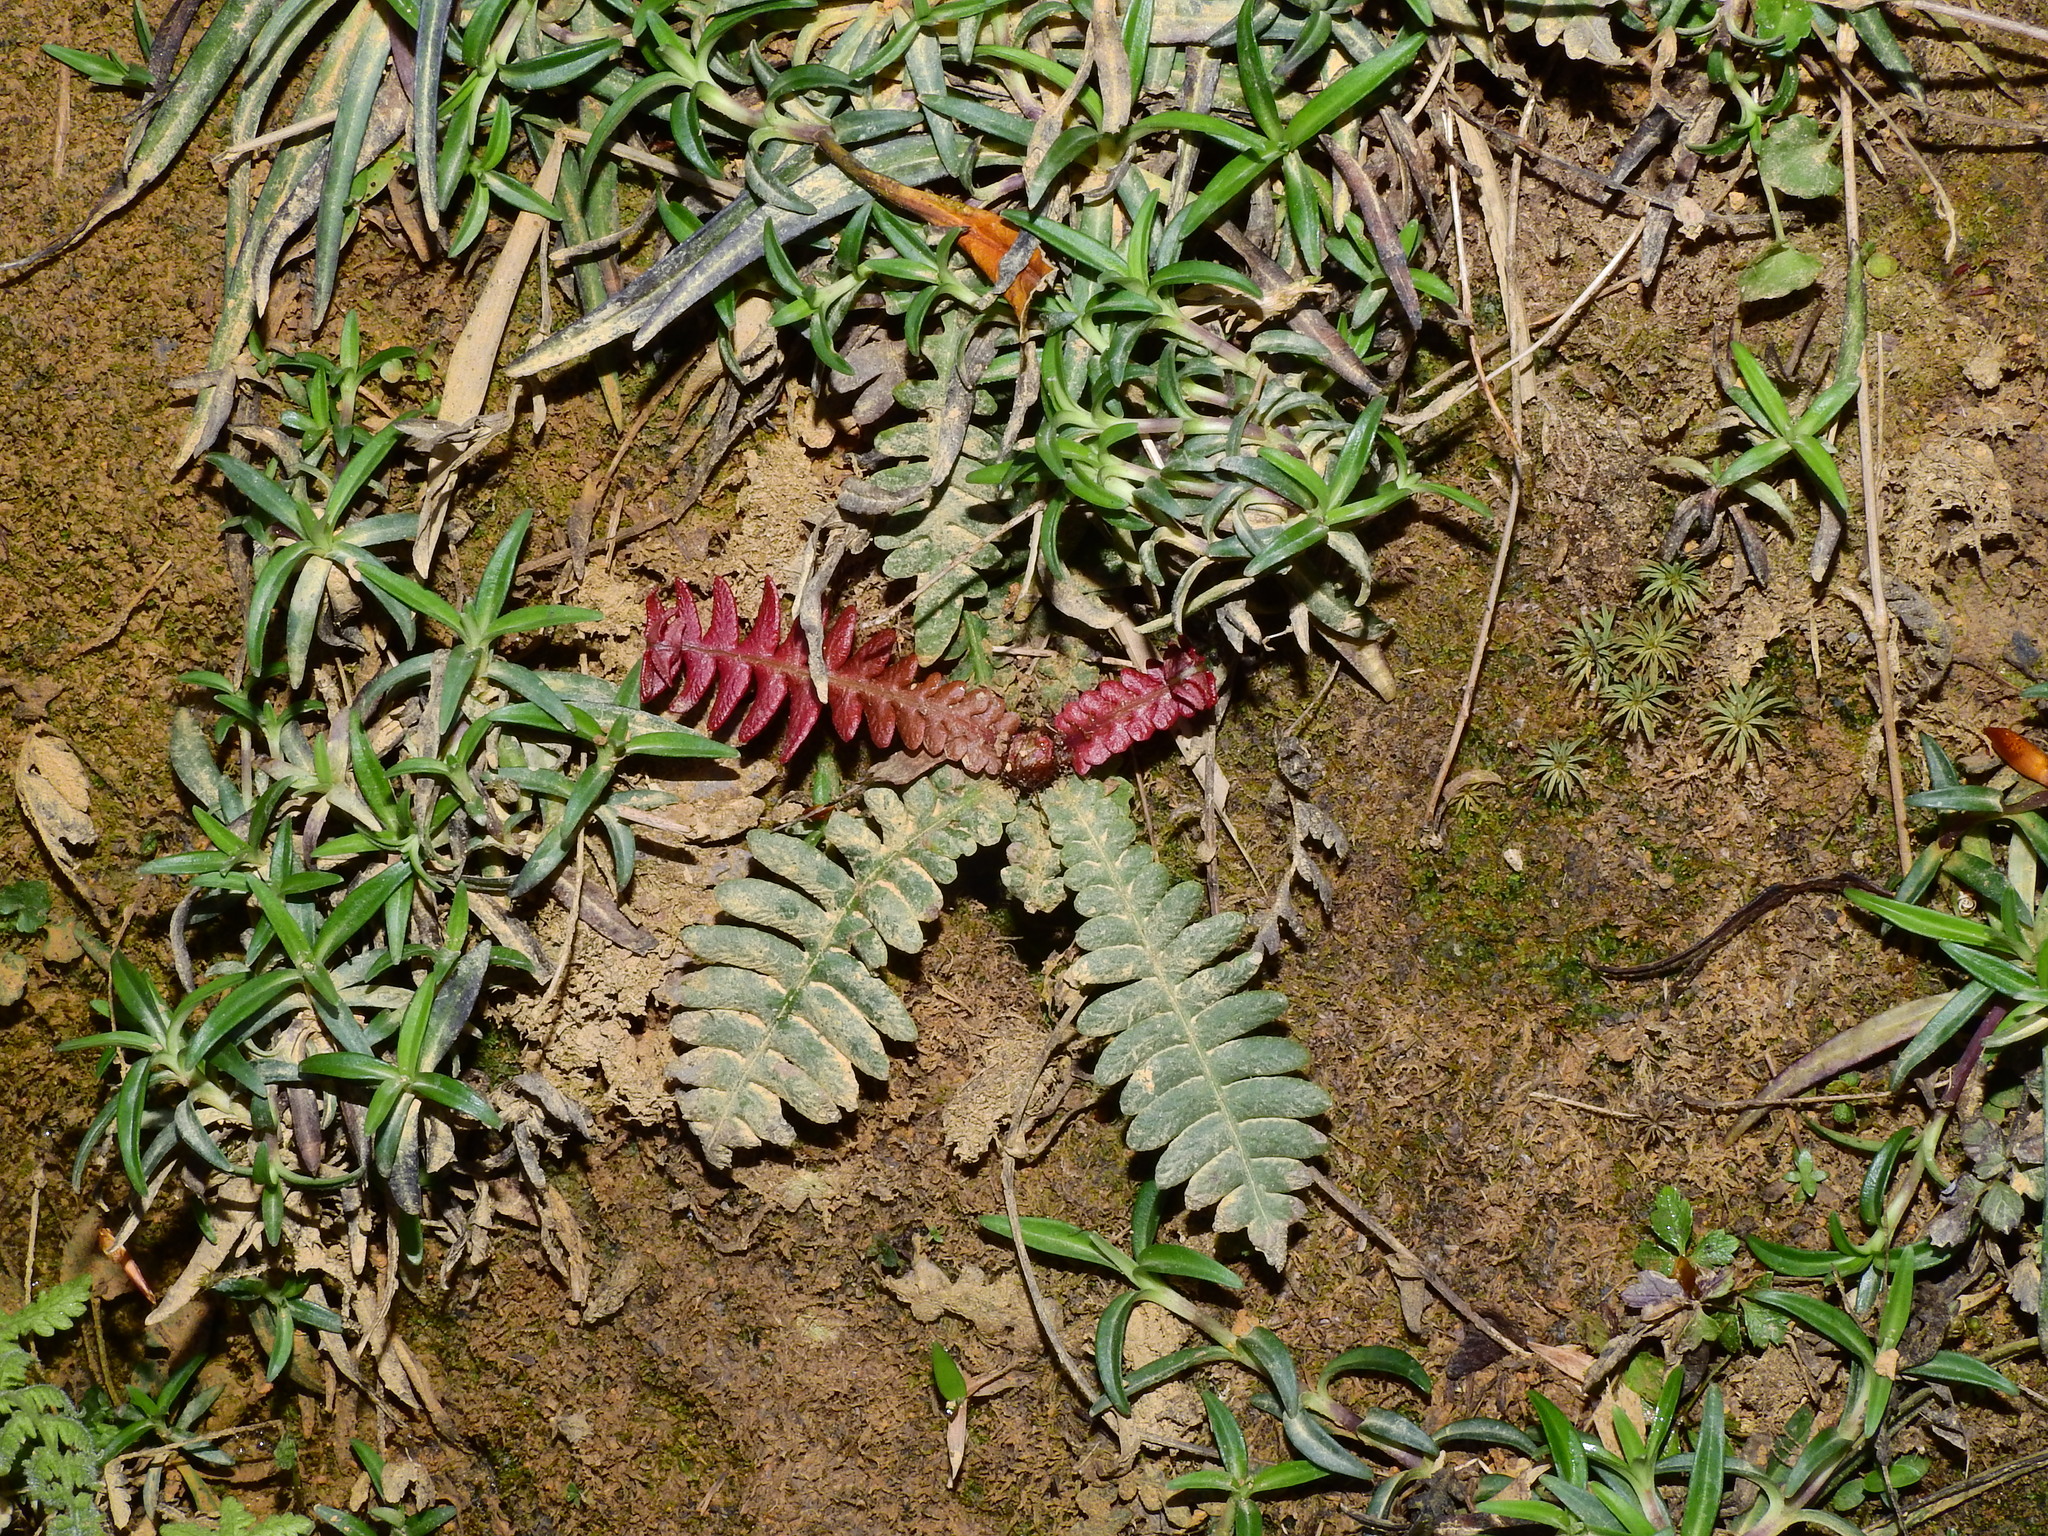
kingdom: Plantae
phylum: Tracheophyta
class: Polypodiopsida
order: Polypodiales
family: Blechnaceae
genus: Spicantopsis
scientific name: Spicantopsis hancockii
